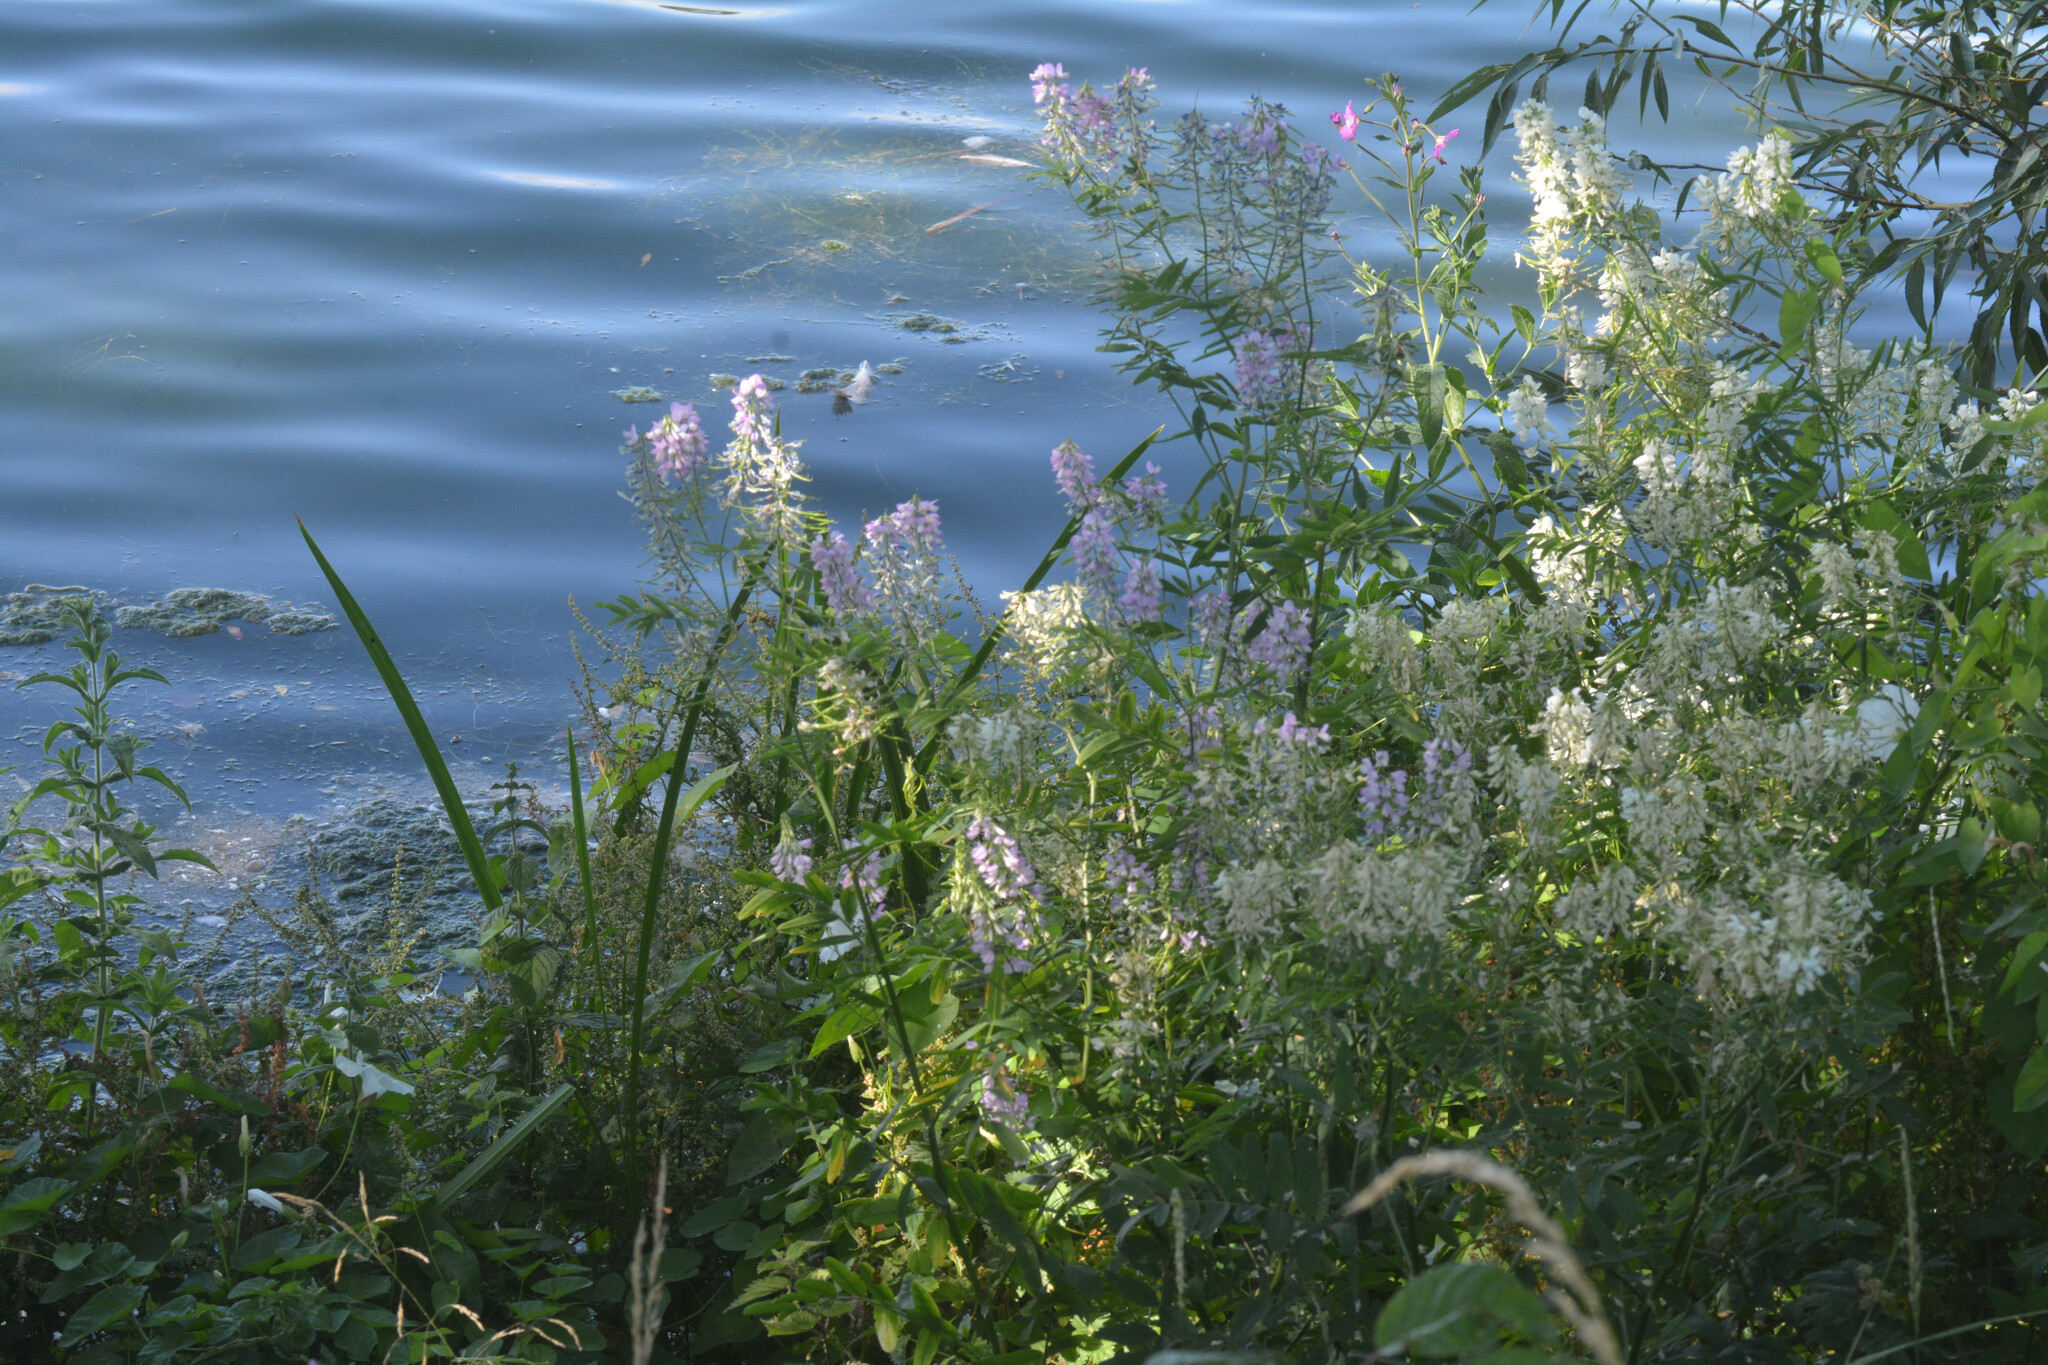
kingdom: Plantae
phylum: Tracheophyta
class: Magnoliopsida
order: Fabales
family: Fabaceae
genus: Galega
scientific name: Galega officinalis
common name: Goat's-rue
